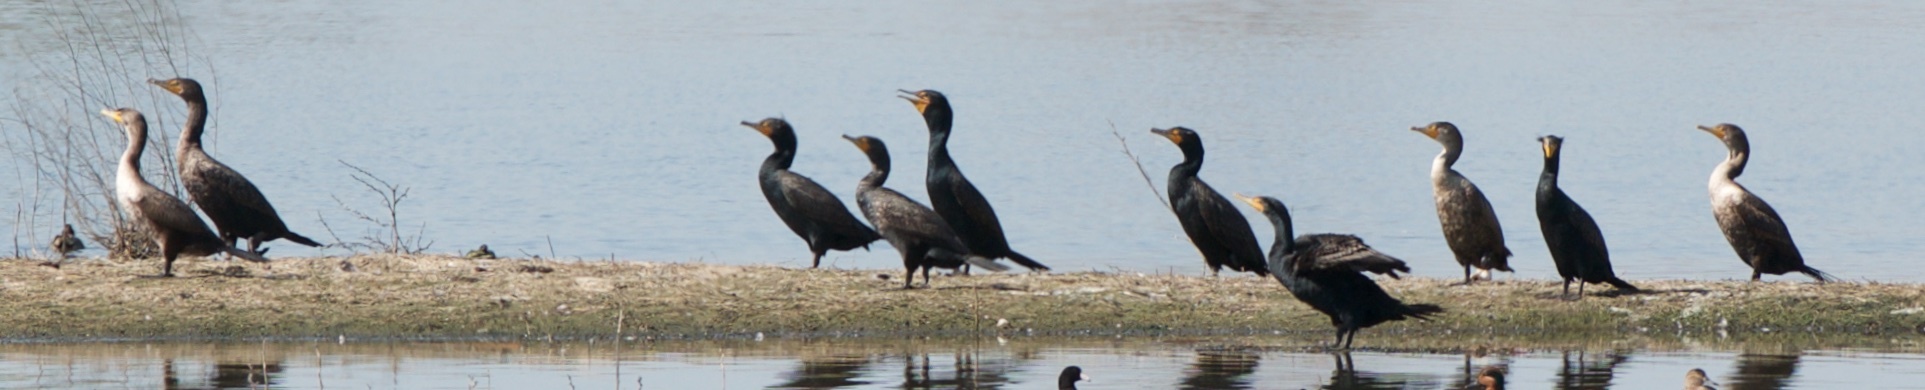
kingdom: Animalia
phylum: Chordata
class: Aves
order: Suliformes
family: Phalacrocoracidae
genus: Phalacrocorax
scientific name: Phalacrocorax auritus
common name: Double-crested cormorant
